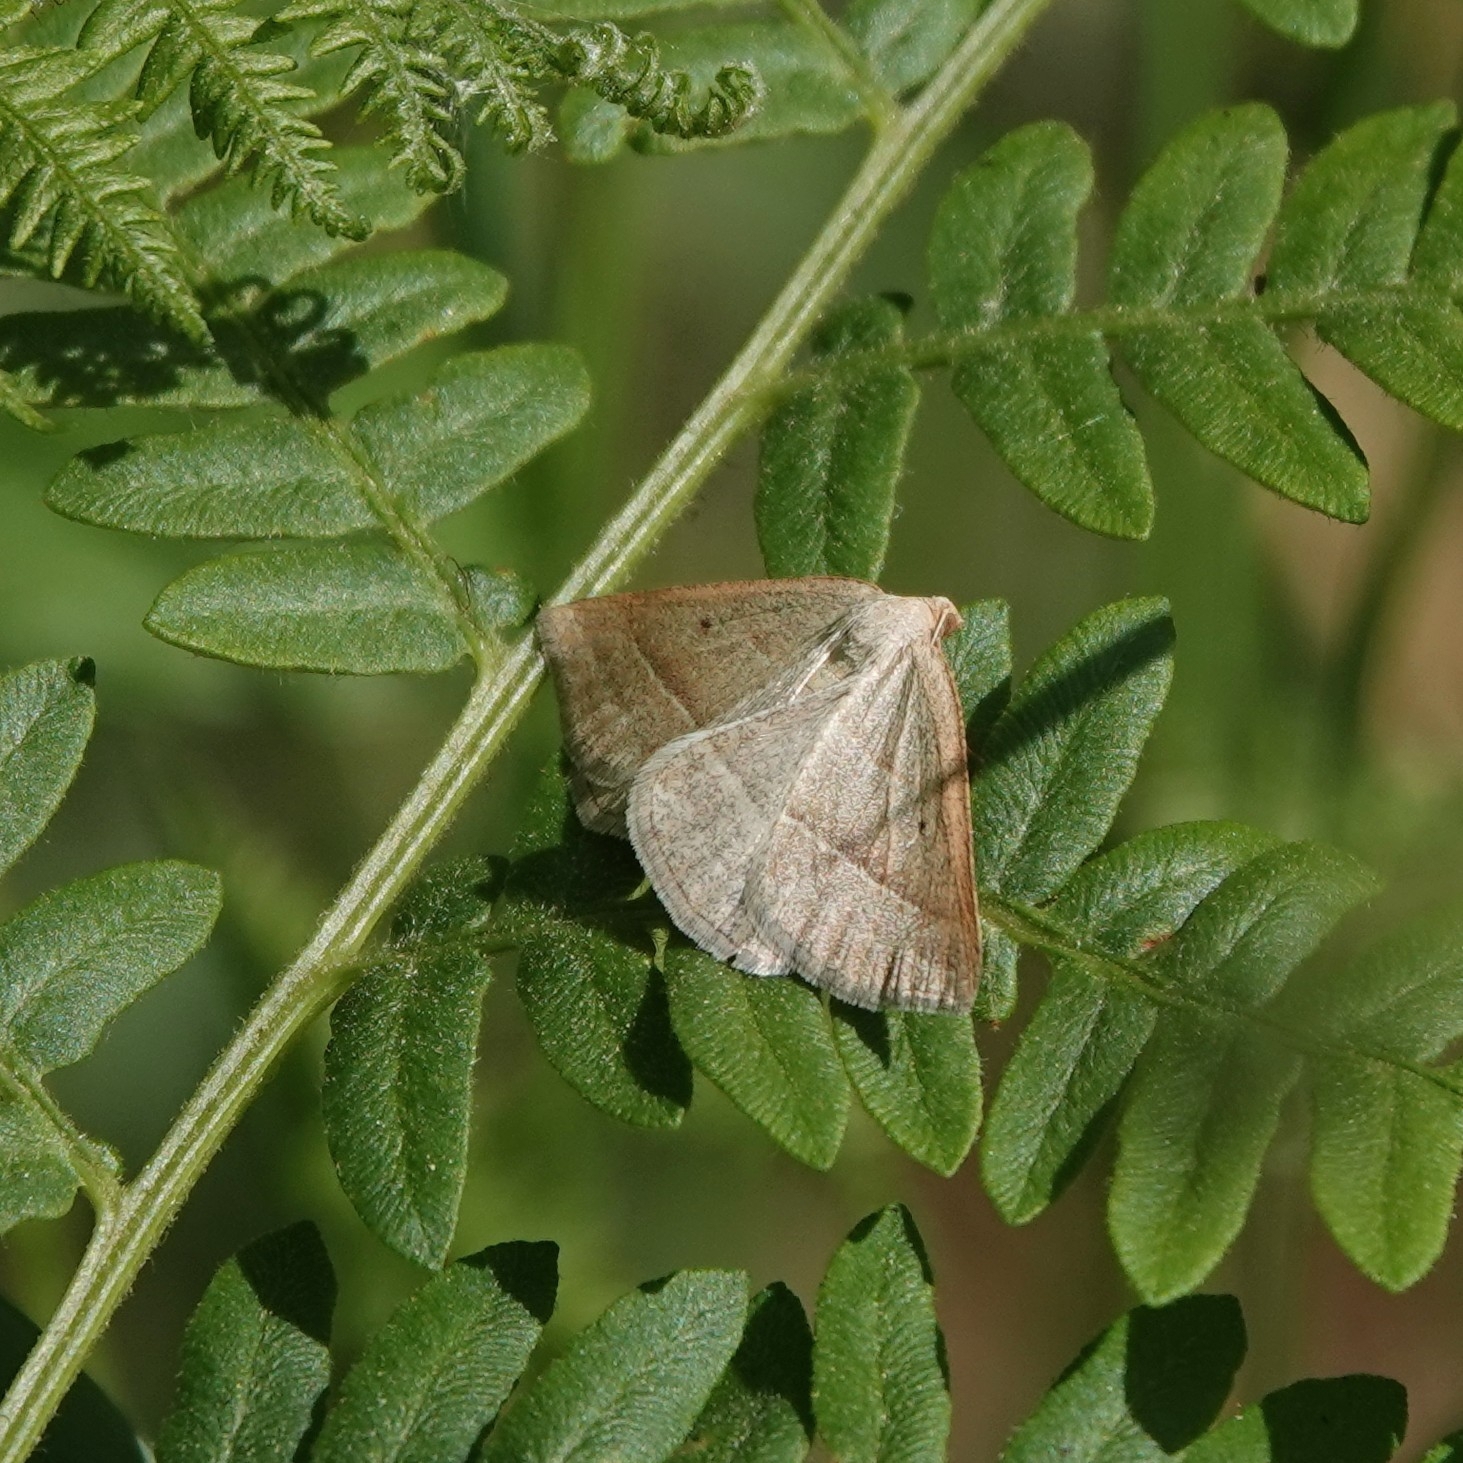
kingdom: Animalia
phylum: Arthropoda
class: Insecta
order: Lepidoptera
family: Pterophoridae
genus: Pterophorus
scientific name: Pterophorus Petrophora chlorosata
